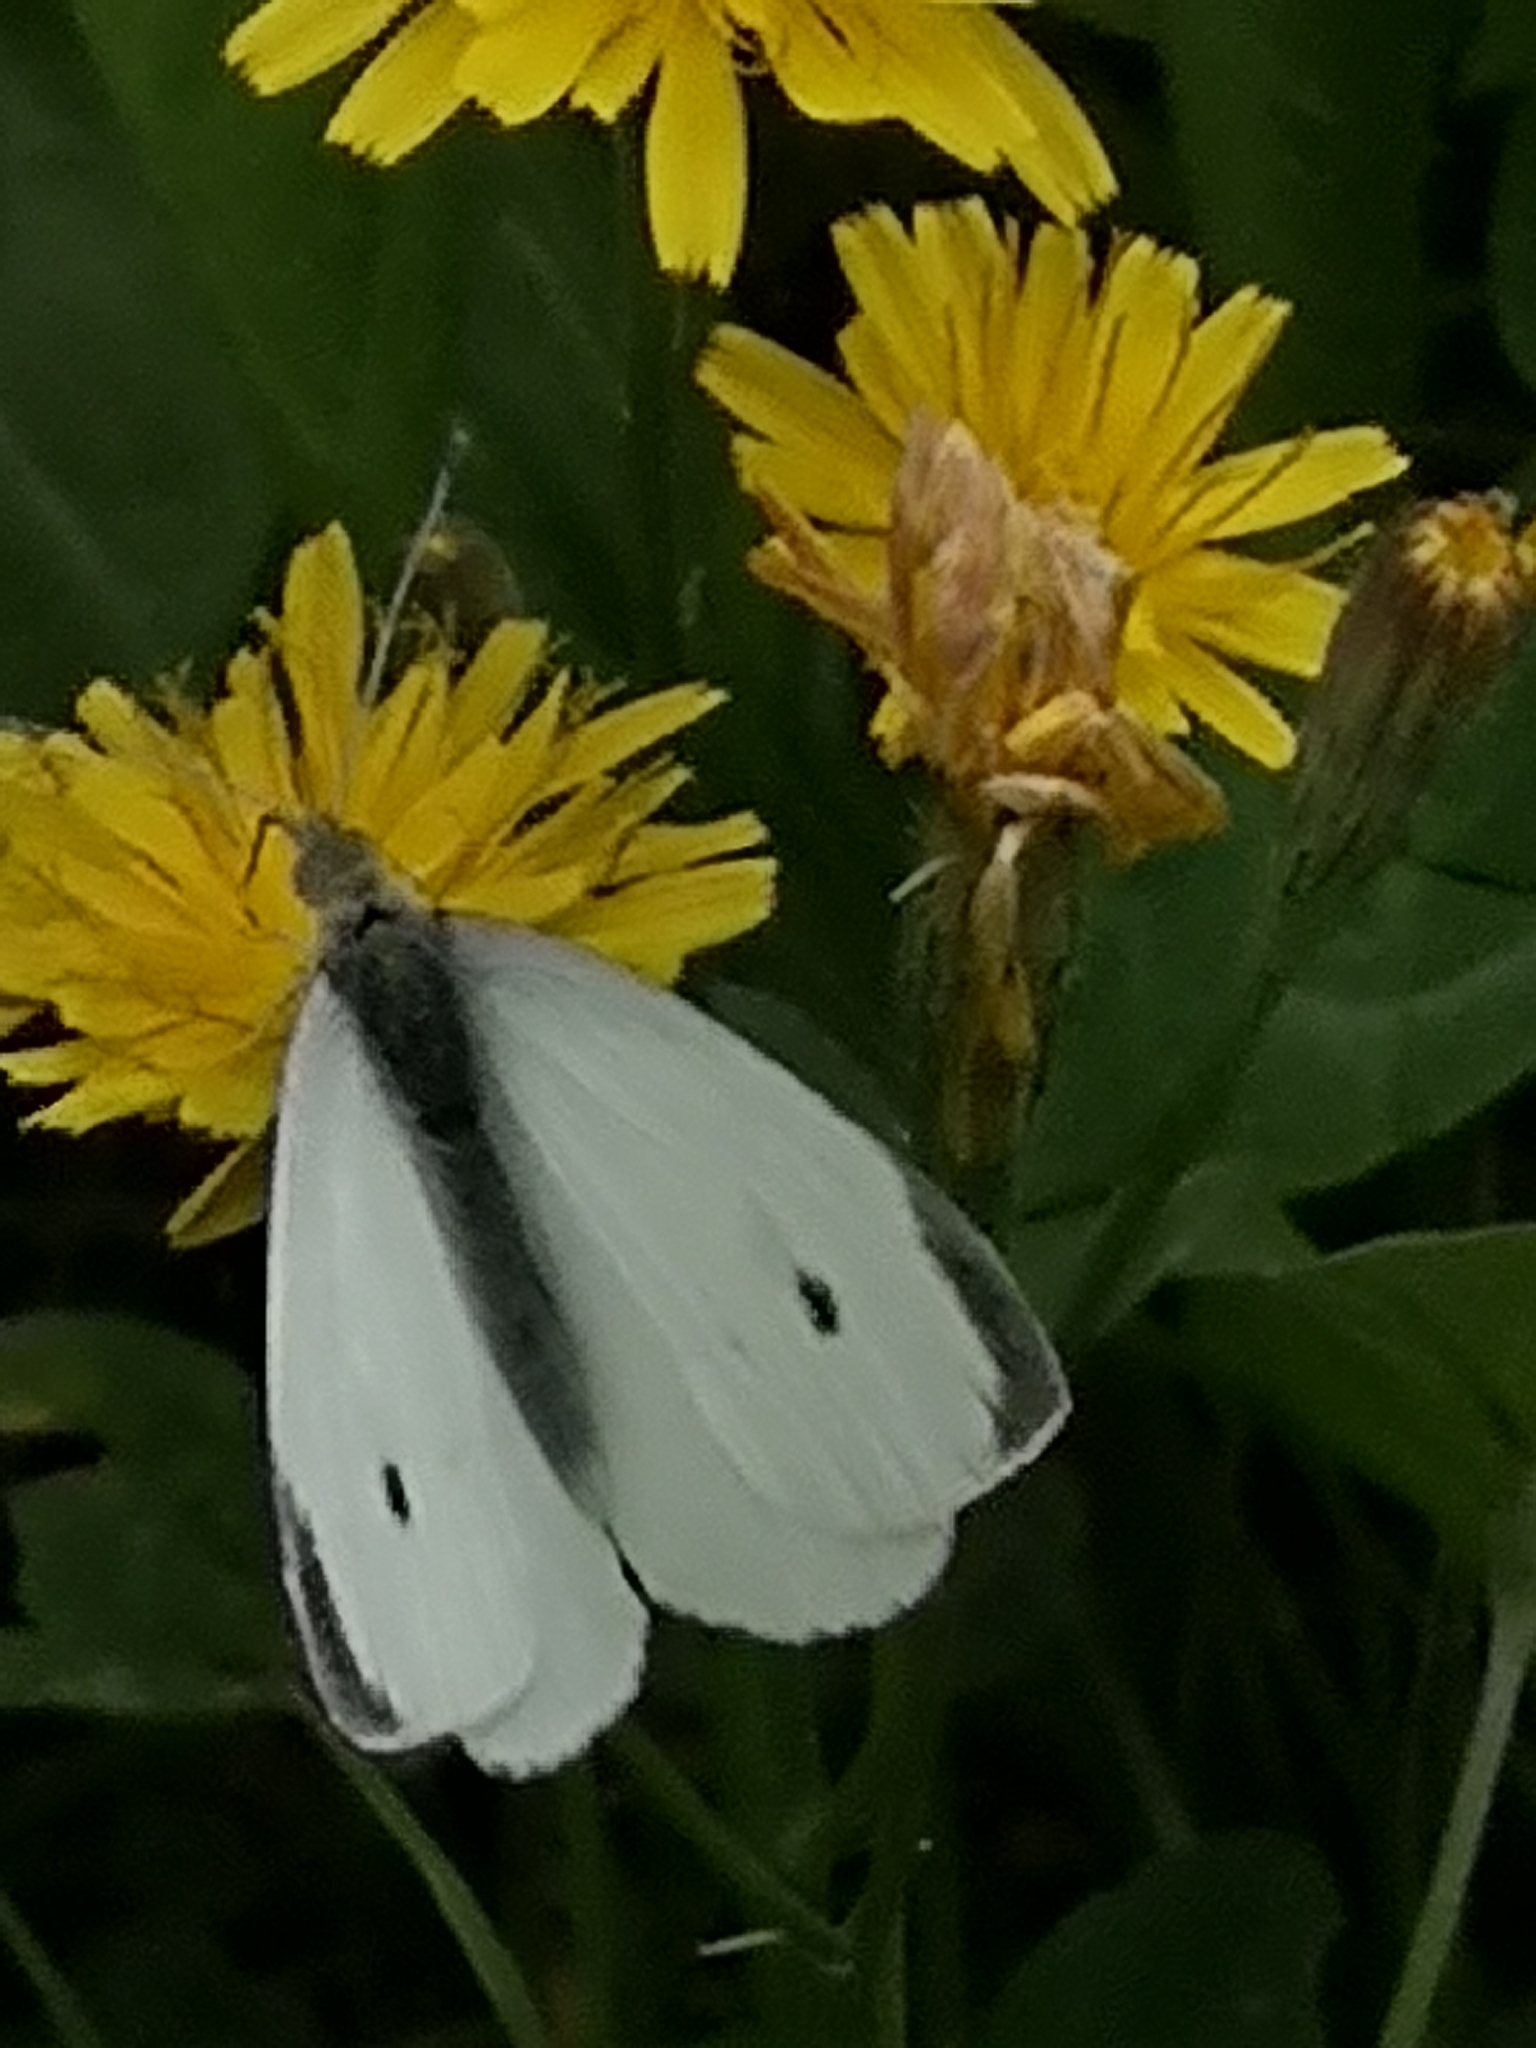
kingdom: Animalia
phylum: Arthropoda
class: Insecta
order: Lepidoptera
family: Pieridae
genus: Pieris
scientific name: Pieris rapae
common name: Small white
